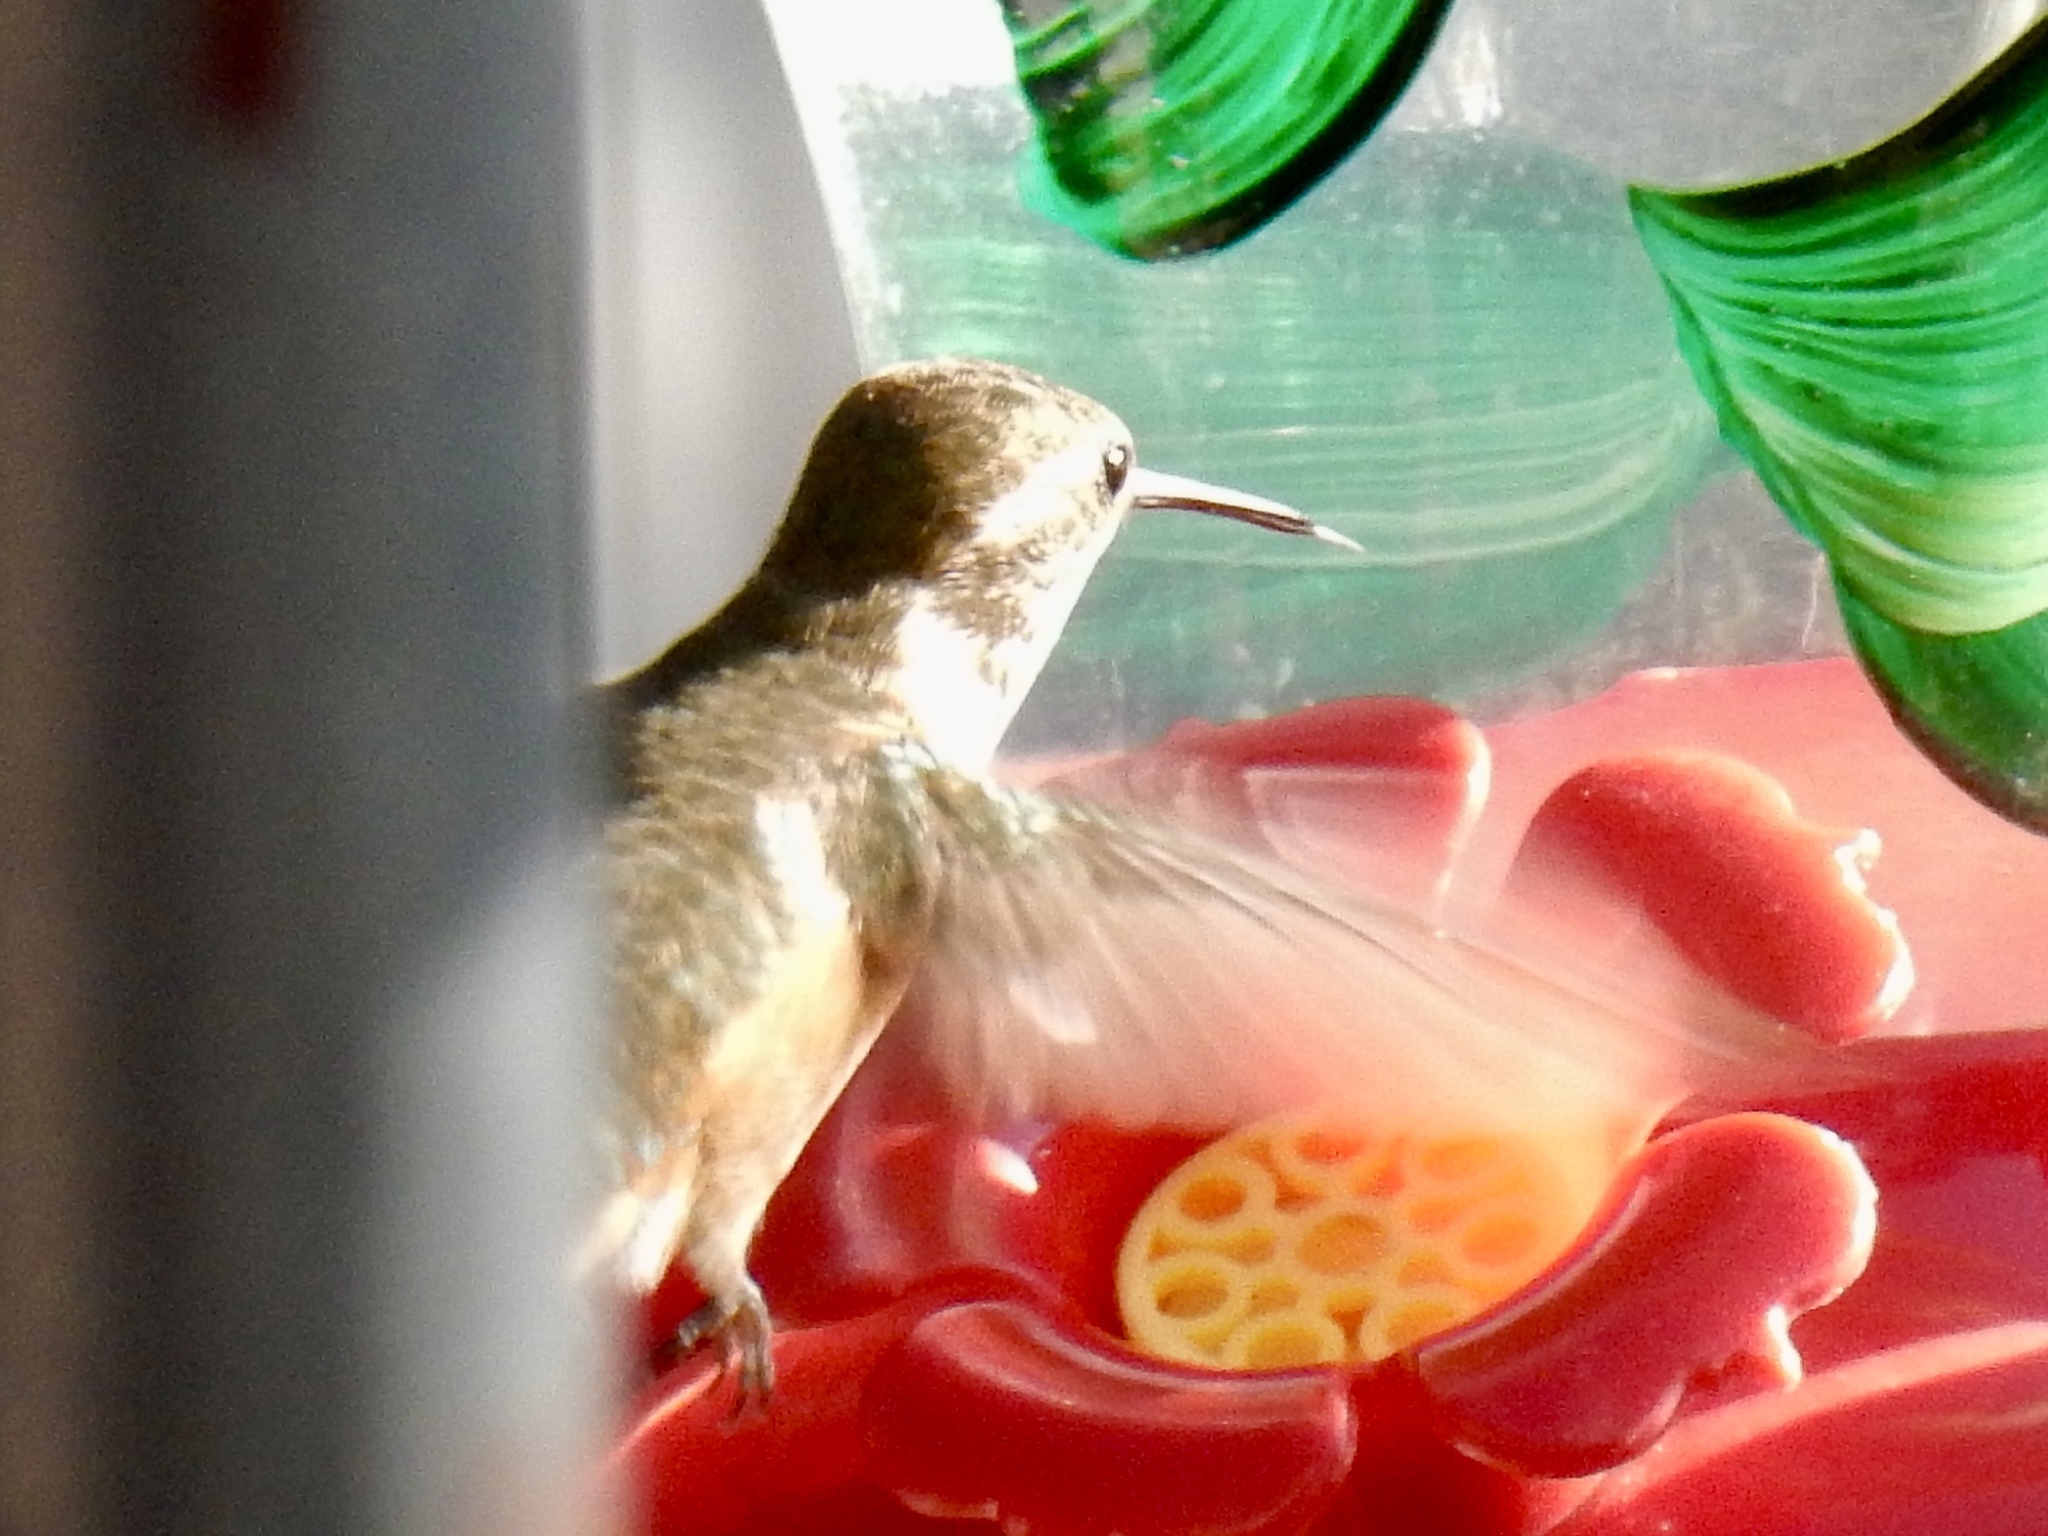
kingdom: Animalia
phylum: Chordata
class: Aves
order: Apodiformes
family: Trochilidae
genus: Selasphorus
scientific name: Selasphorus rufus
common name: Rufous hummingbird
